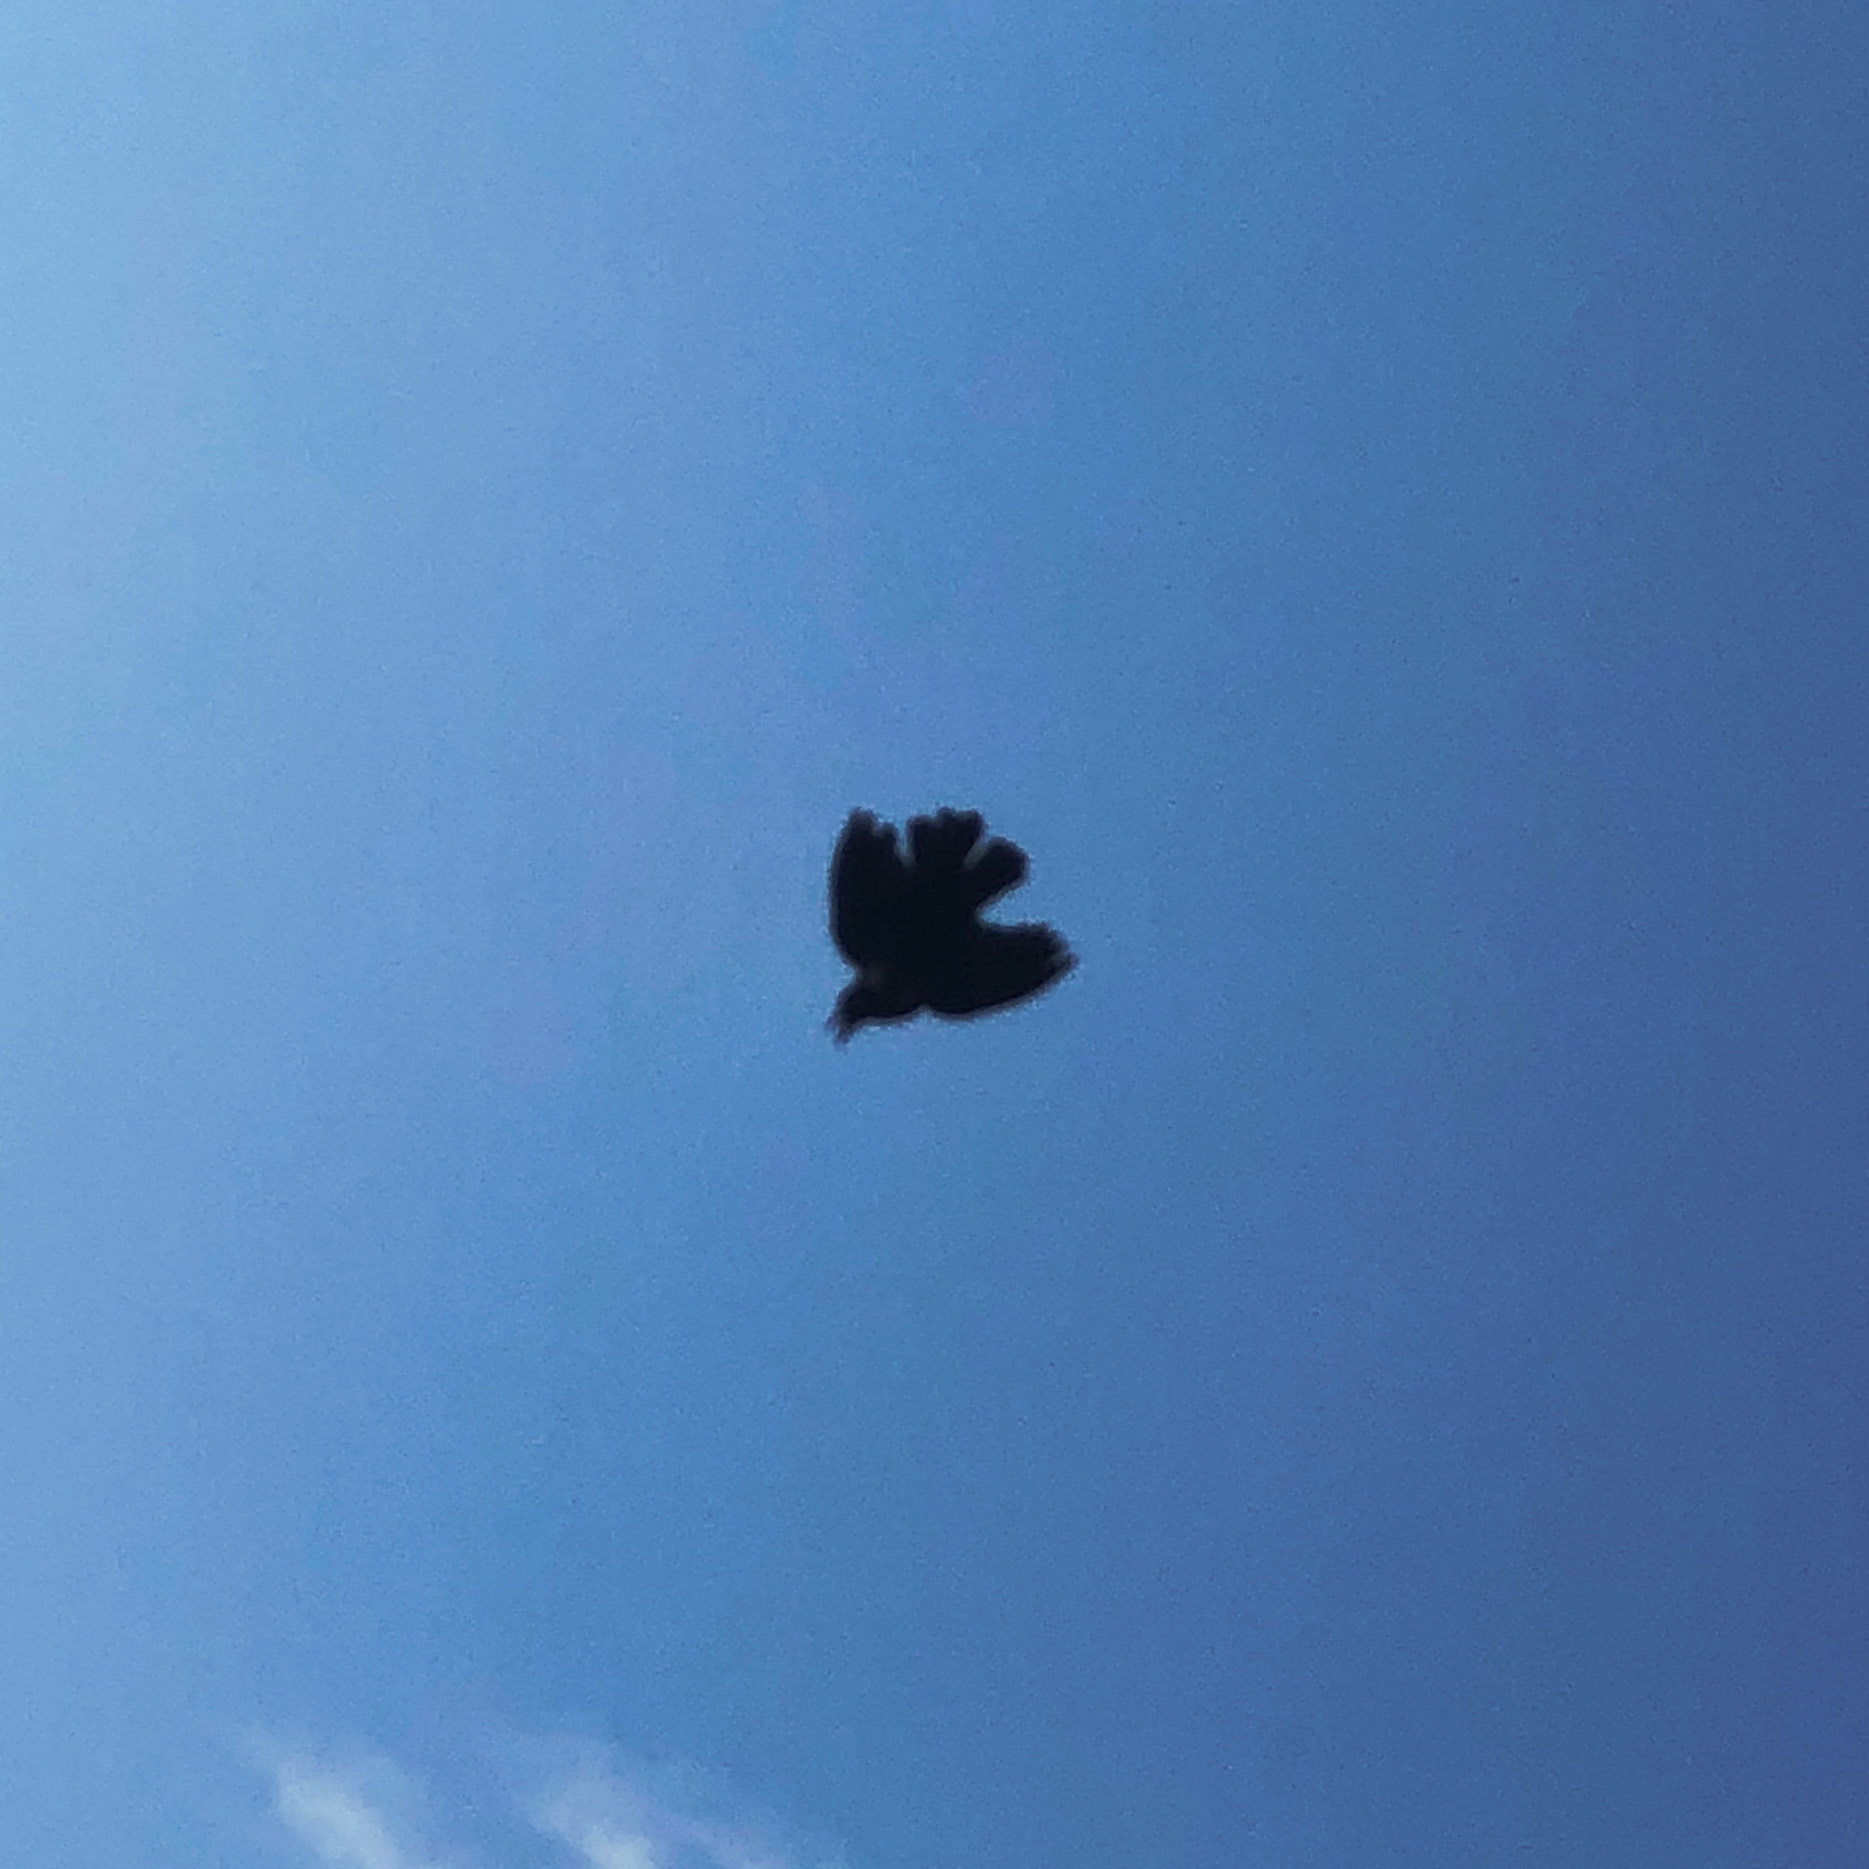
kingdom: Animalia
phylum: Chordata
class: Aves
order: Passeriformes
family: Icteridae
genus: Agelaius
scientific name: Agelaius phoeniceus
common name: Red-winged blackbird
